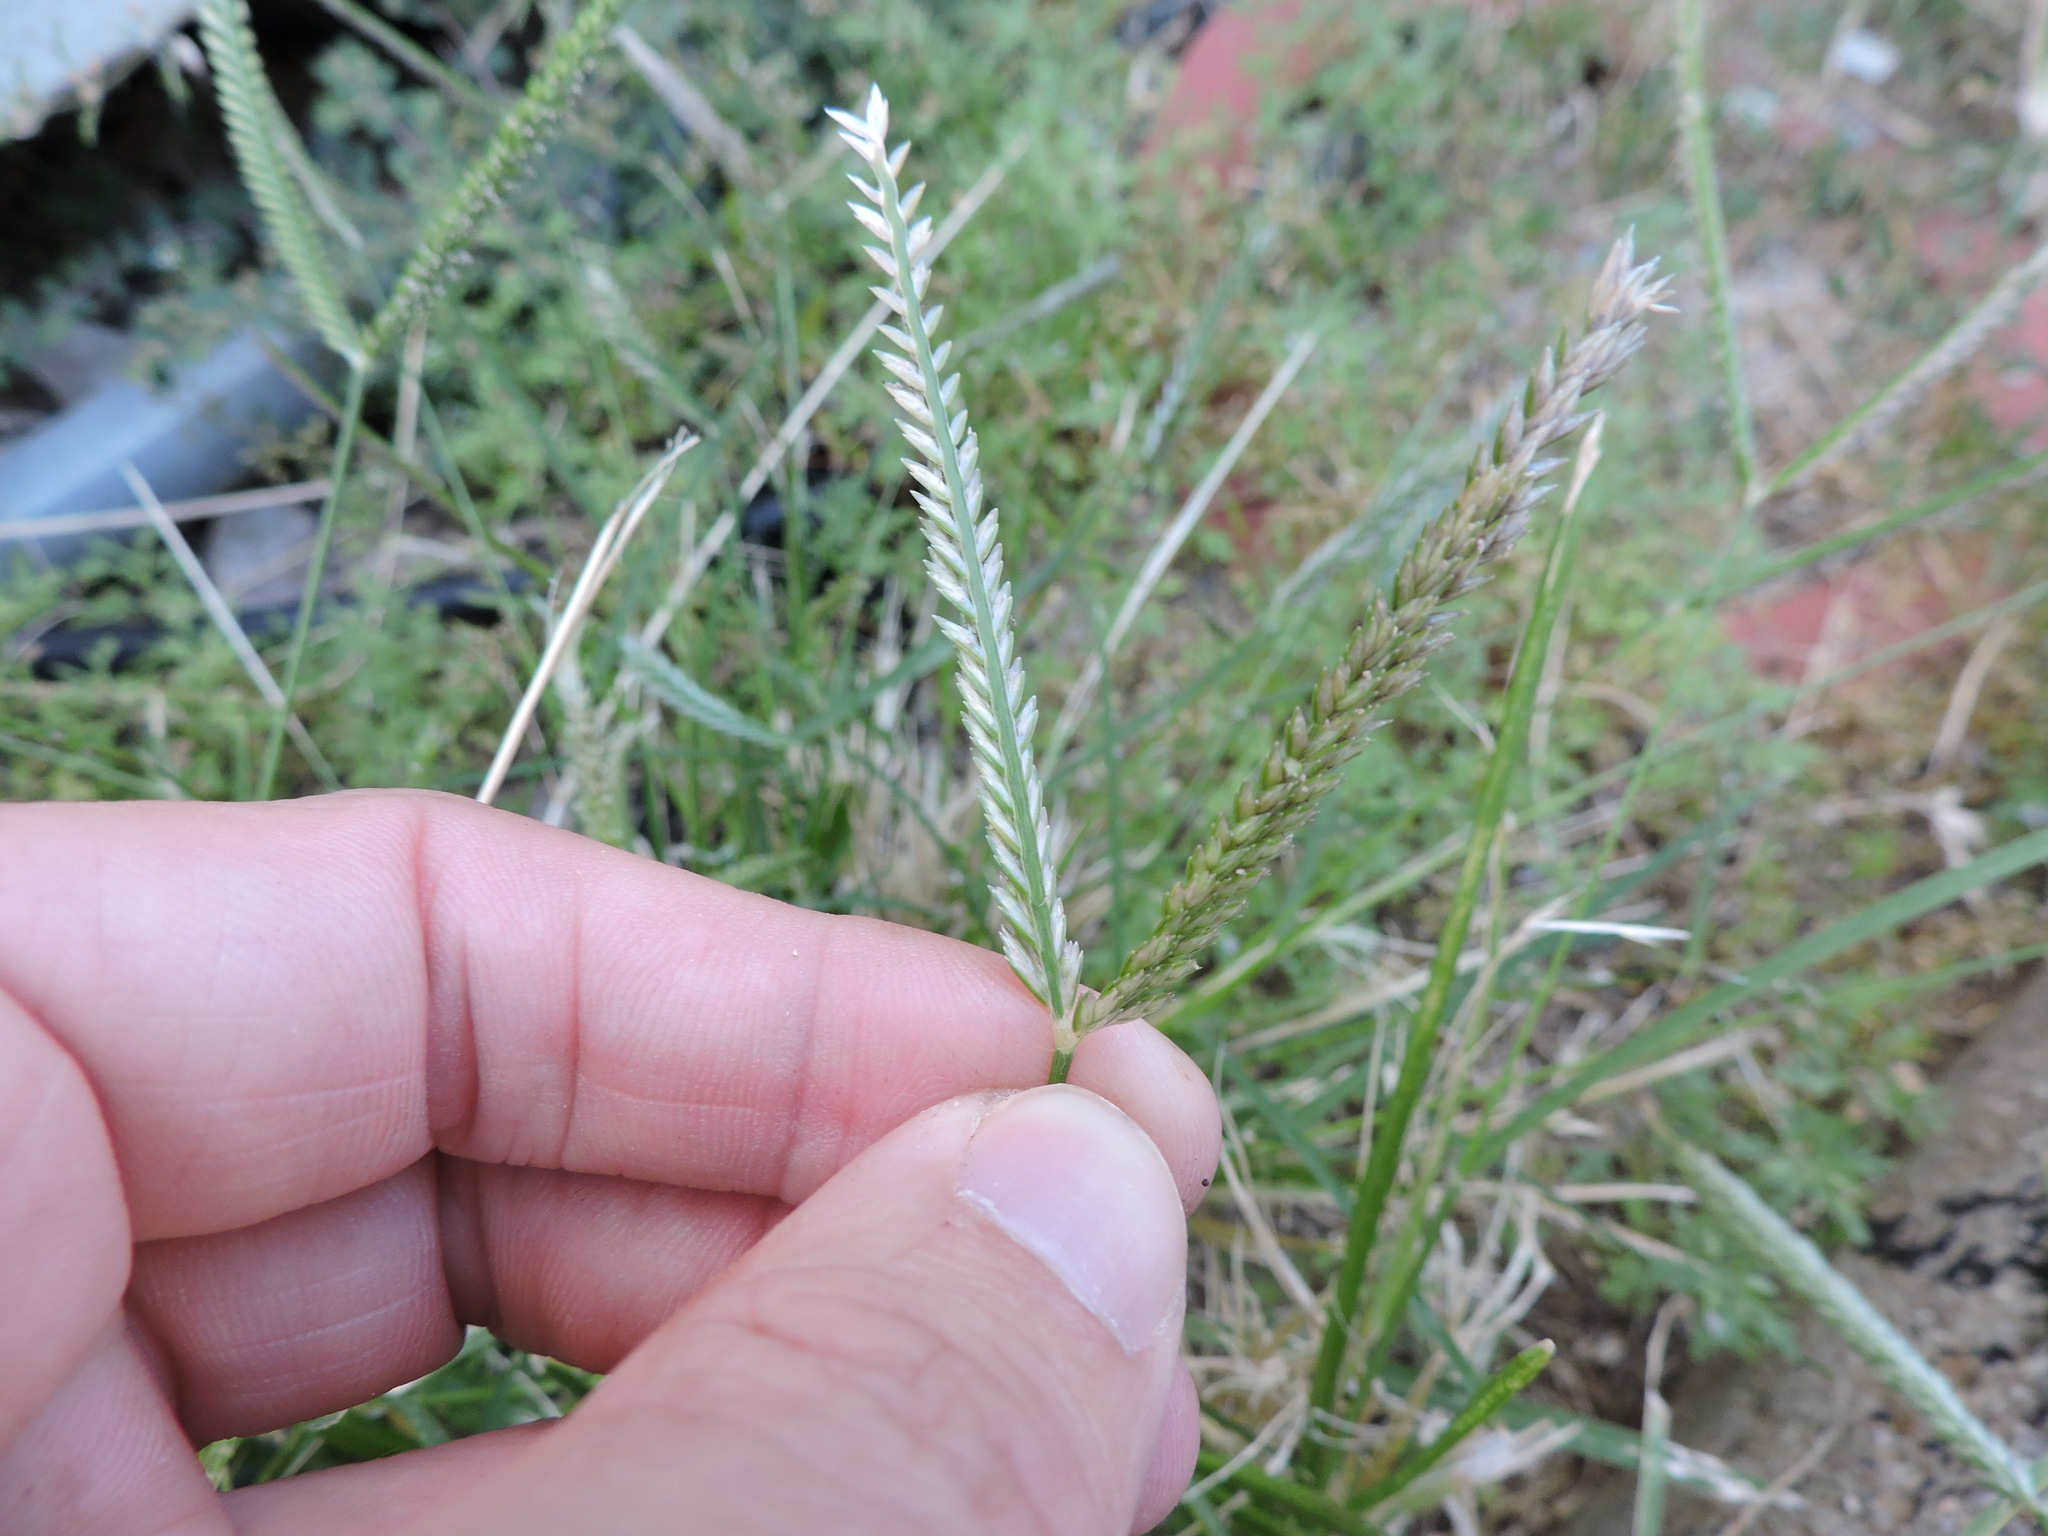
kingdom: Plantae
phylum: Tracheophyta
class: Liliopsida
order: Poales
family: Poaceae
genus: Eleusine
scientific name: Eleusine indica
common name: Yard-grass
